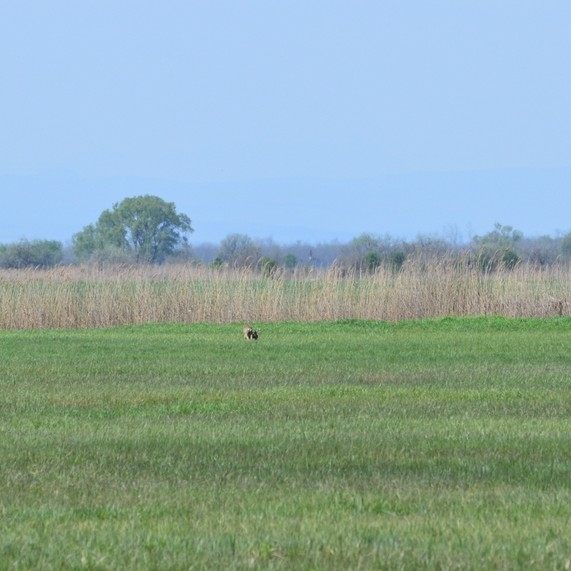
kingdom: Animalia
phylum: Chordata
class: Mammalia
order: Artiodactyla
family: Cervidae
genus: Capreolus
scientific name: Capreolus capreolus
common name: Western roe deer
